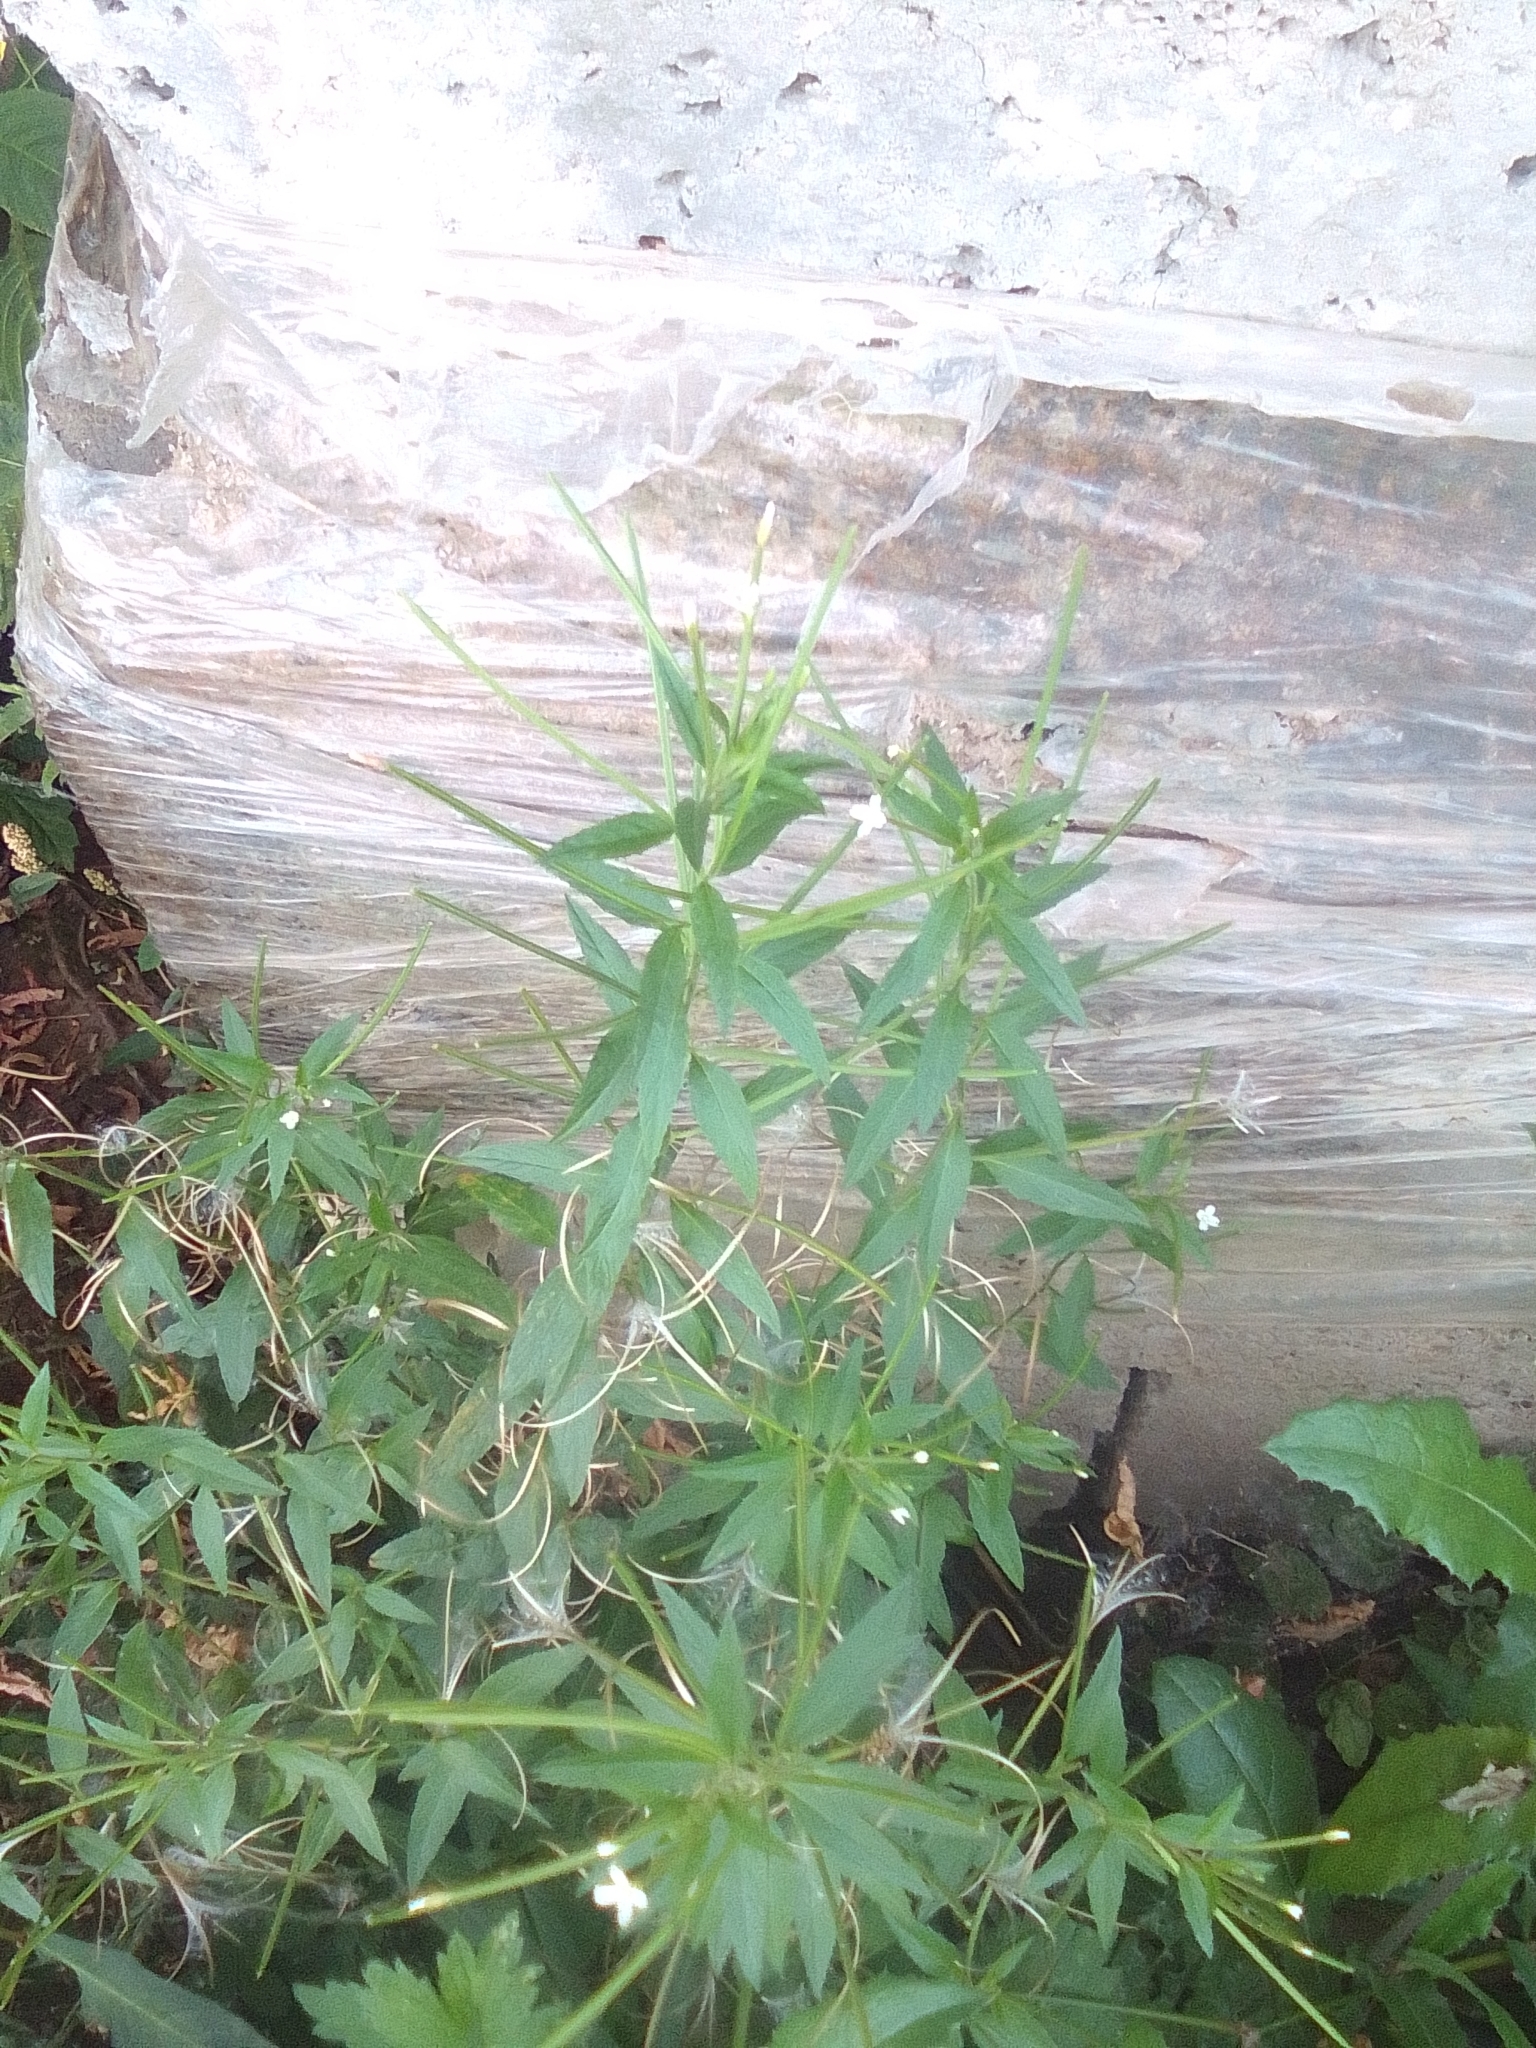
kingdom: Plantae
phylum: Tracheophyta
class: Magnoliopsida
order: Myrtales
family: Onagraceae
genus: Epilobium
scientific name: Epilobium pseudorubescens
